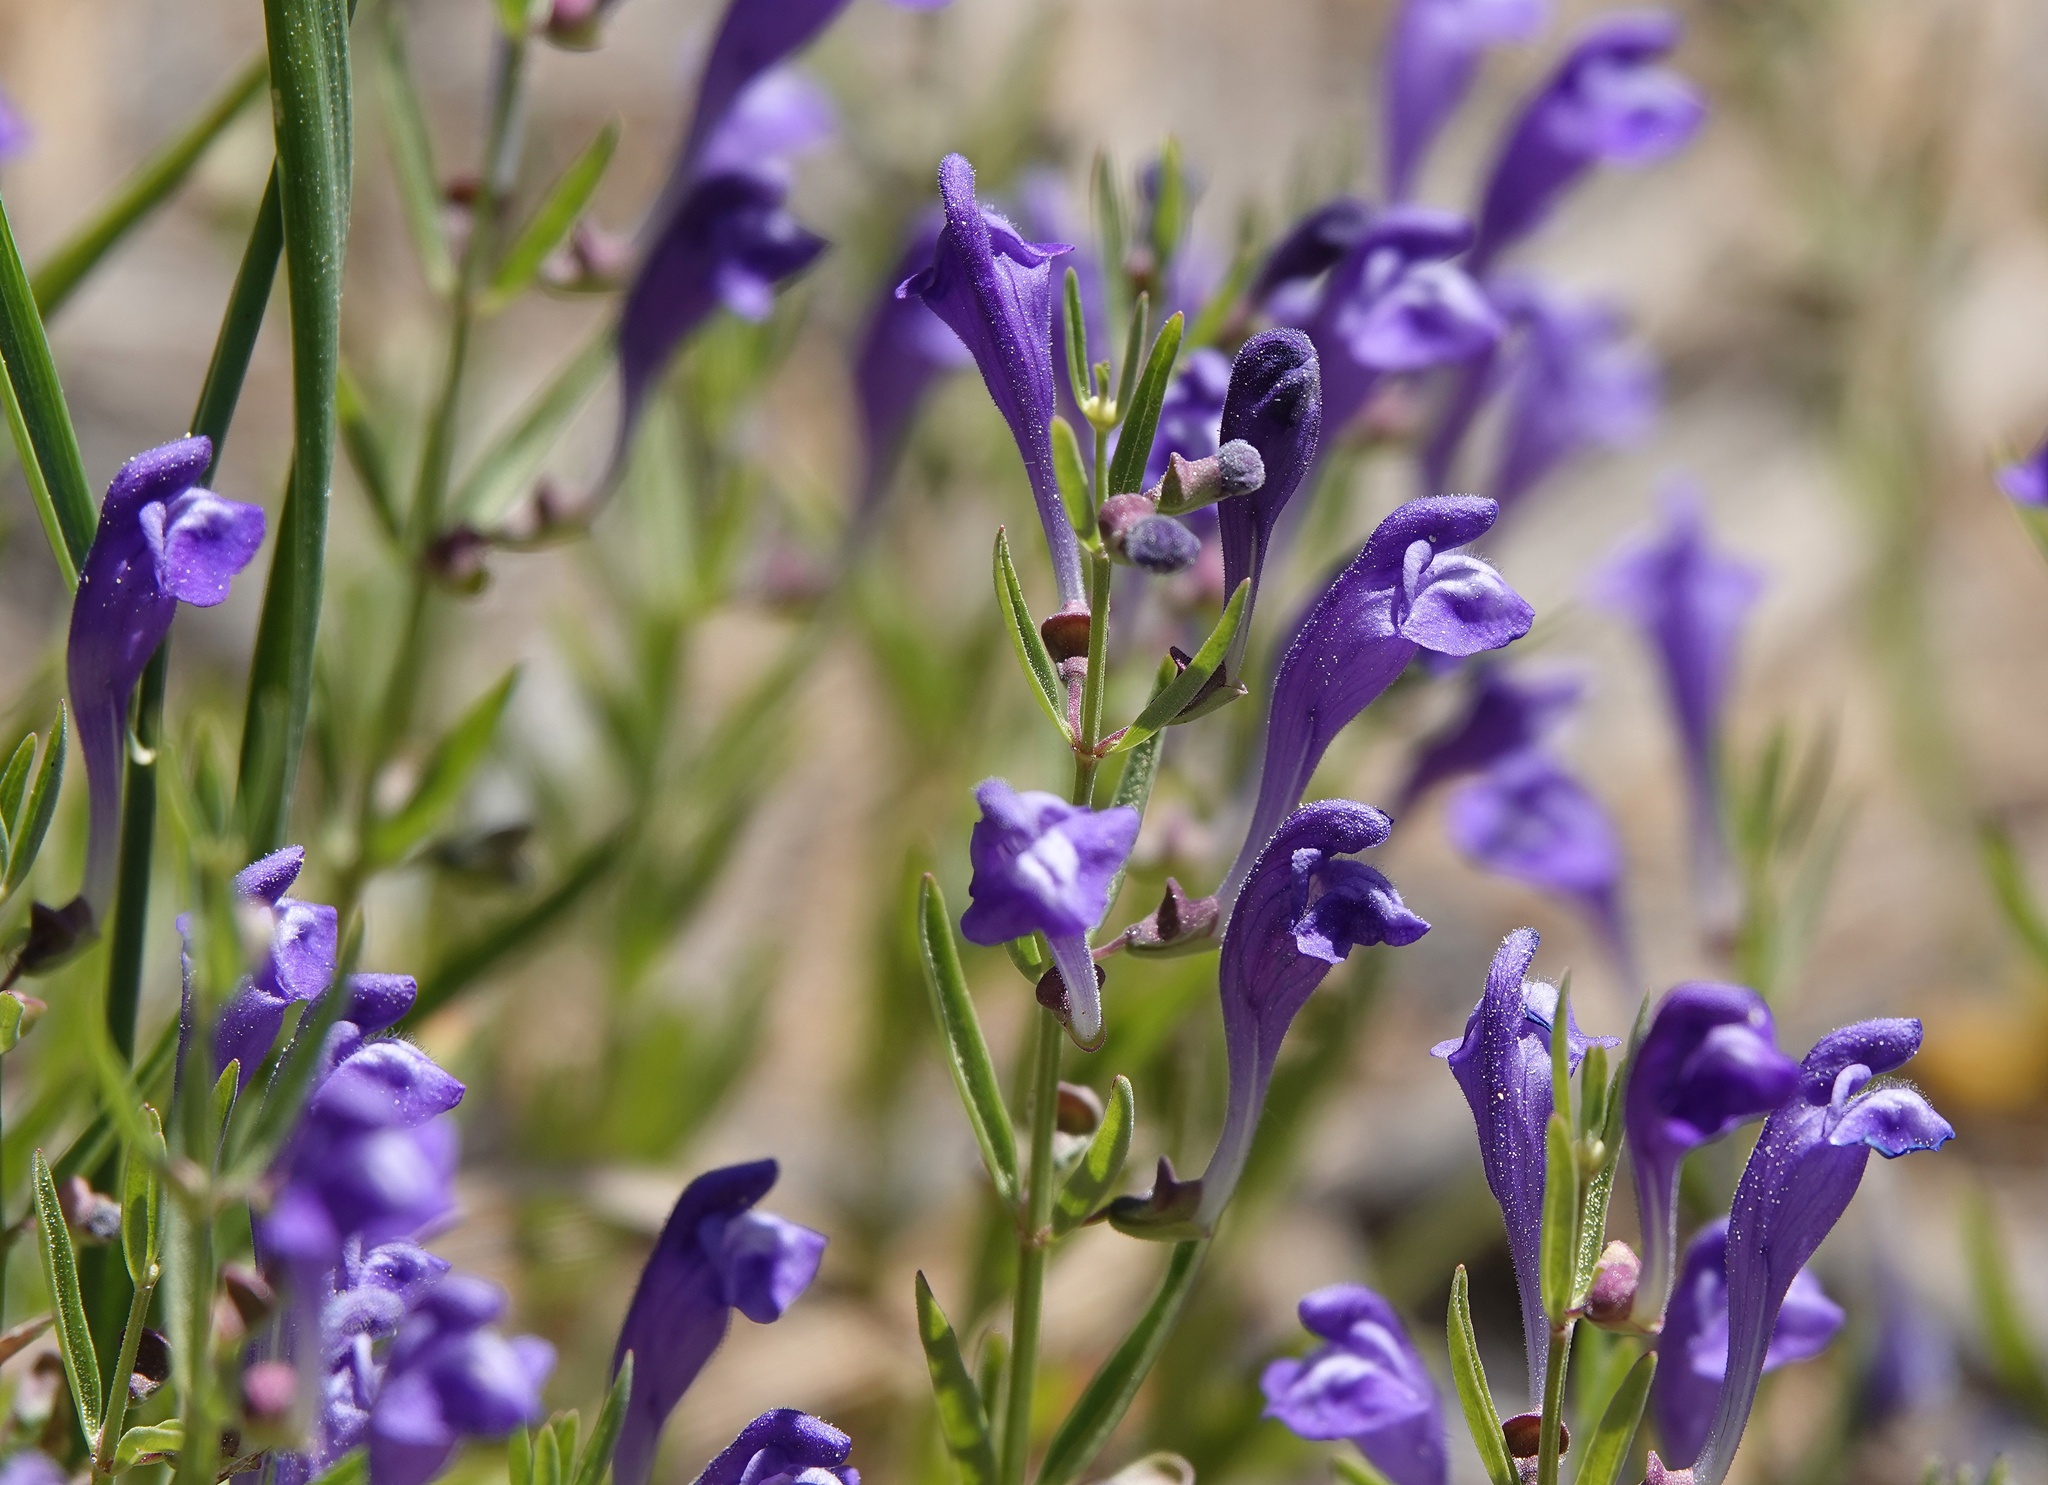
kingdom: Plantae
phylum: Tracheophyta
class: Magnoliopsida
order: Lamiales
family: Lamiaceae
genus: Scutellaria
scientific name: Scutellaria siphocampyloides
